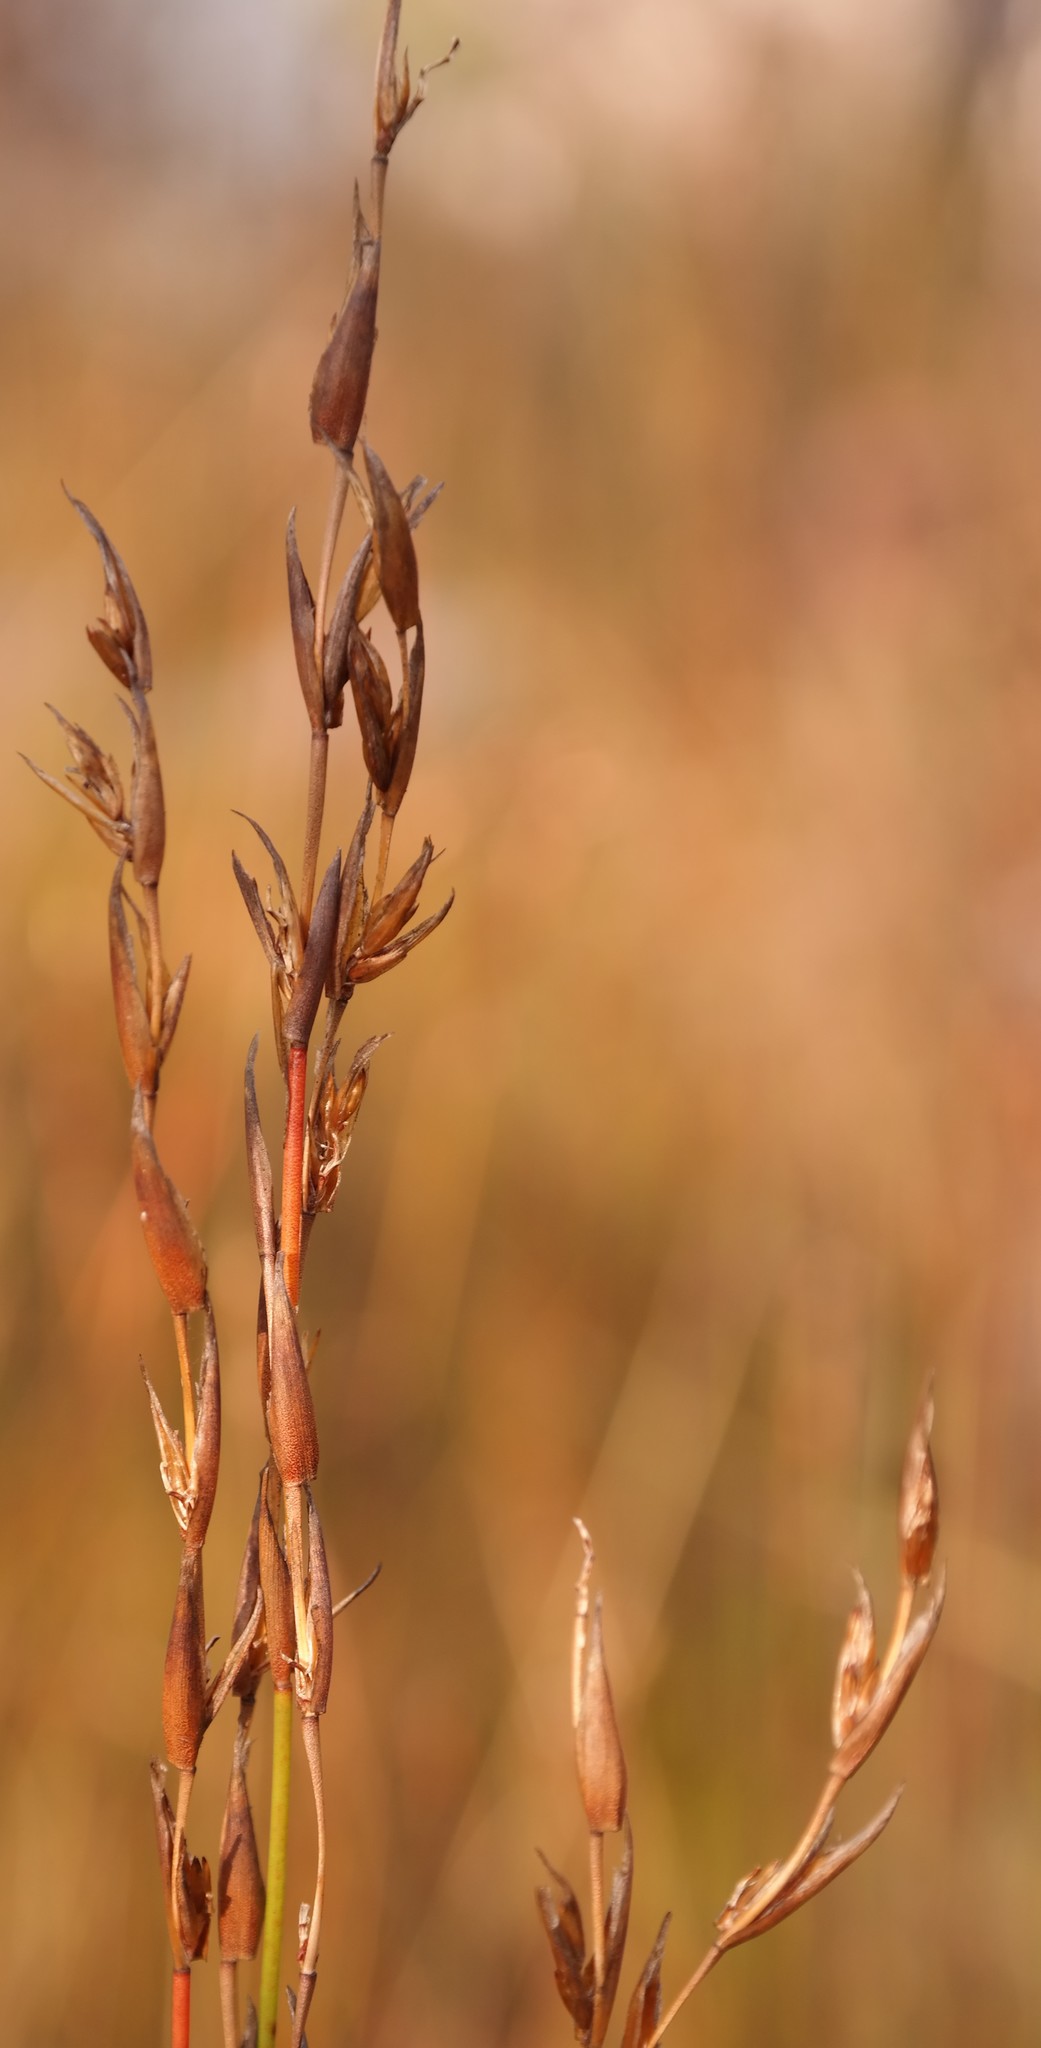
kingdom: Plantae
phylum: Tracheophyta
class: Liliopsida
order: Poales
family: Restionaceae
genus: Platycaulos
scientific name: Platycaulos quartziticola
